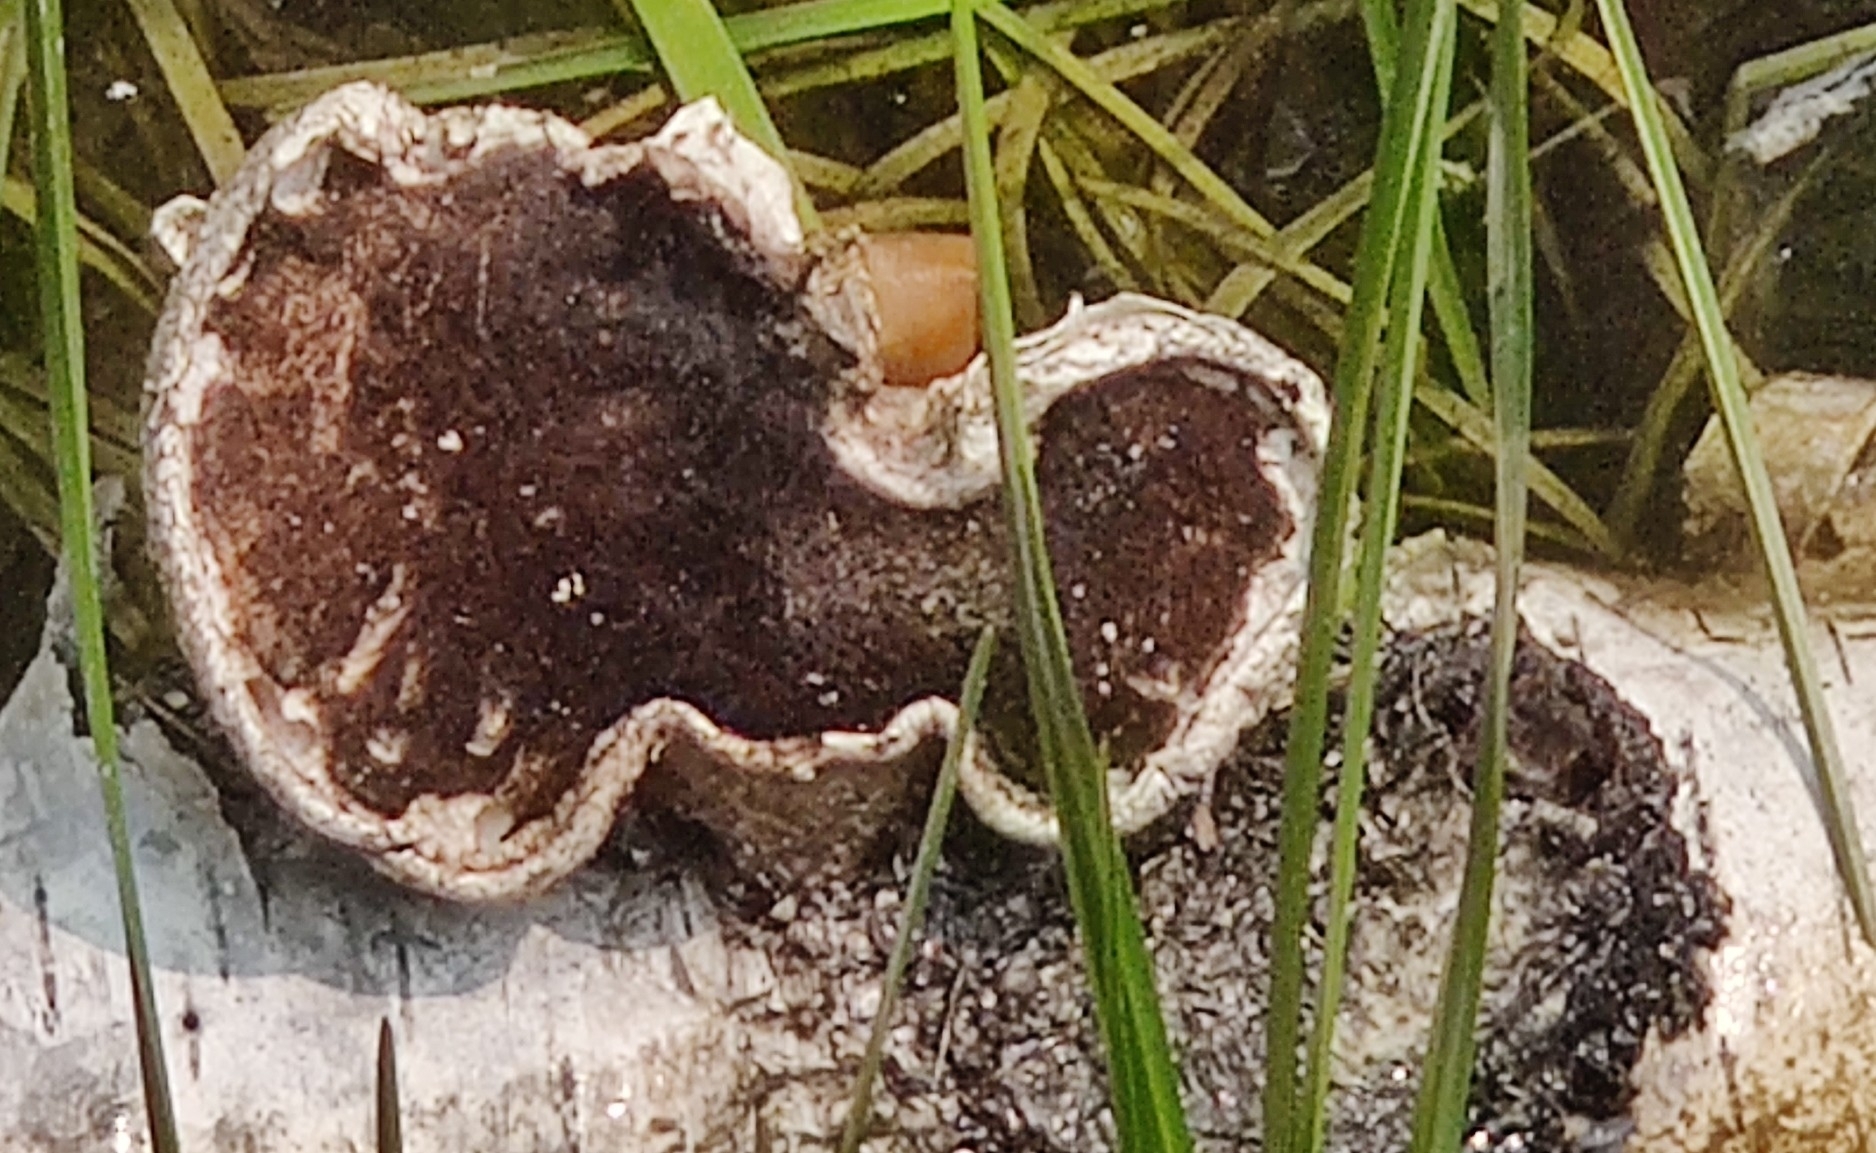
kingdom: Fungi
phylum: Basidiomycota
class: Agaricomycetes
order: Polyporales
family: Fomitopsidaceae
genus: Fomitopsis
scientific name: Fomitopsis betulina
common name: Birch polypore
